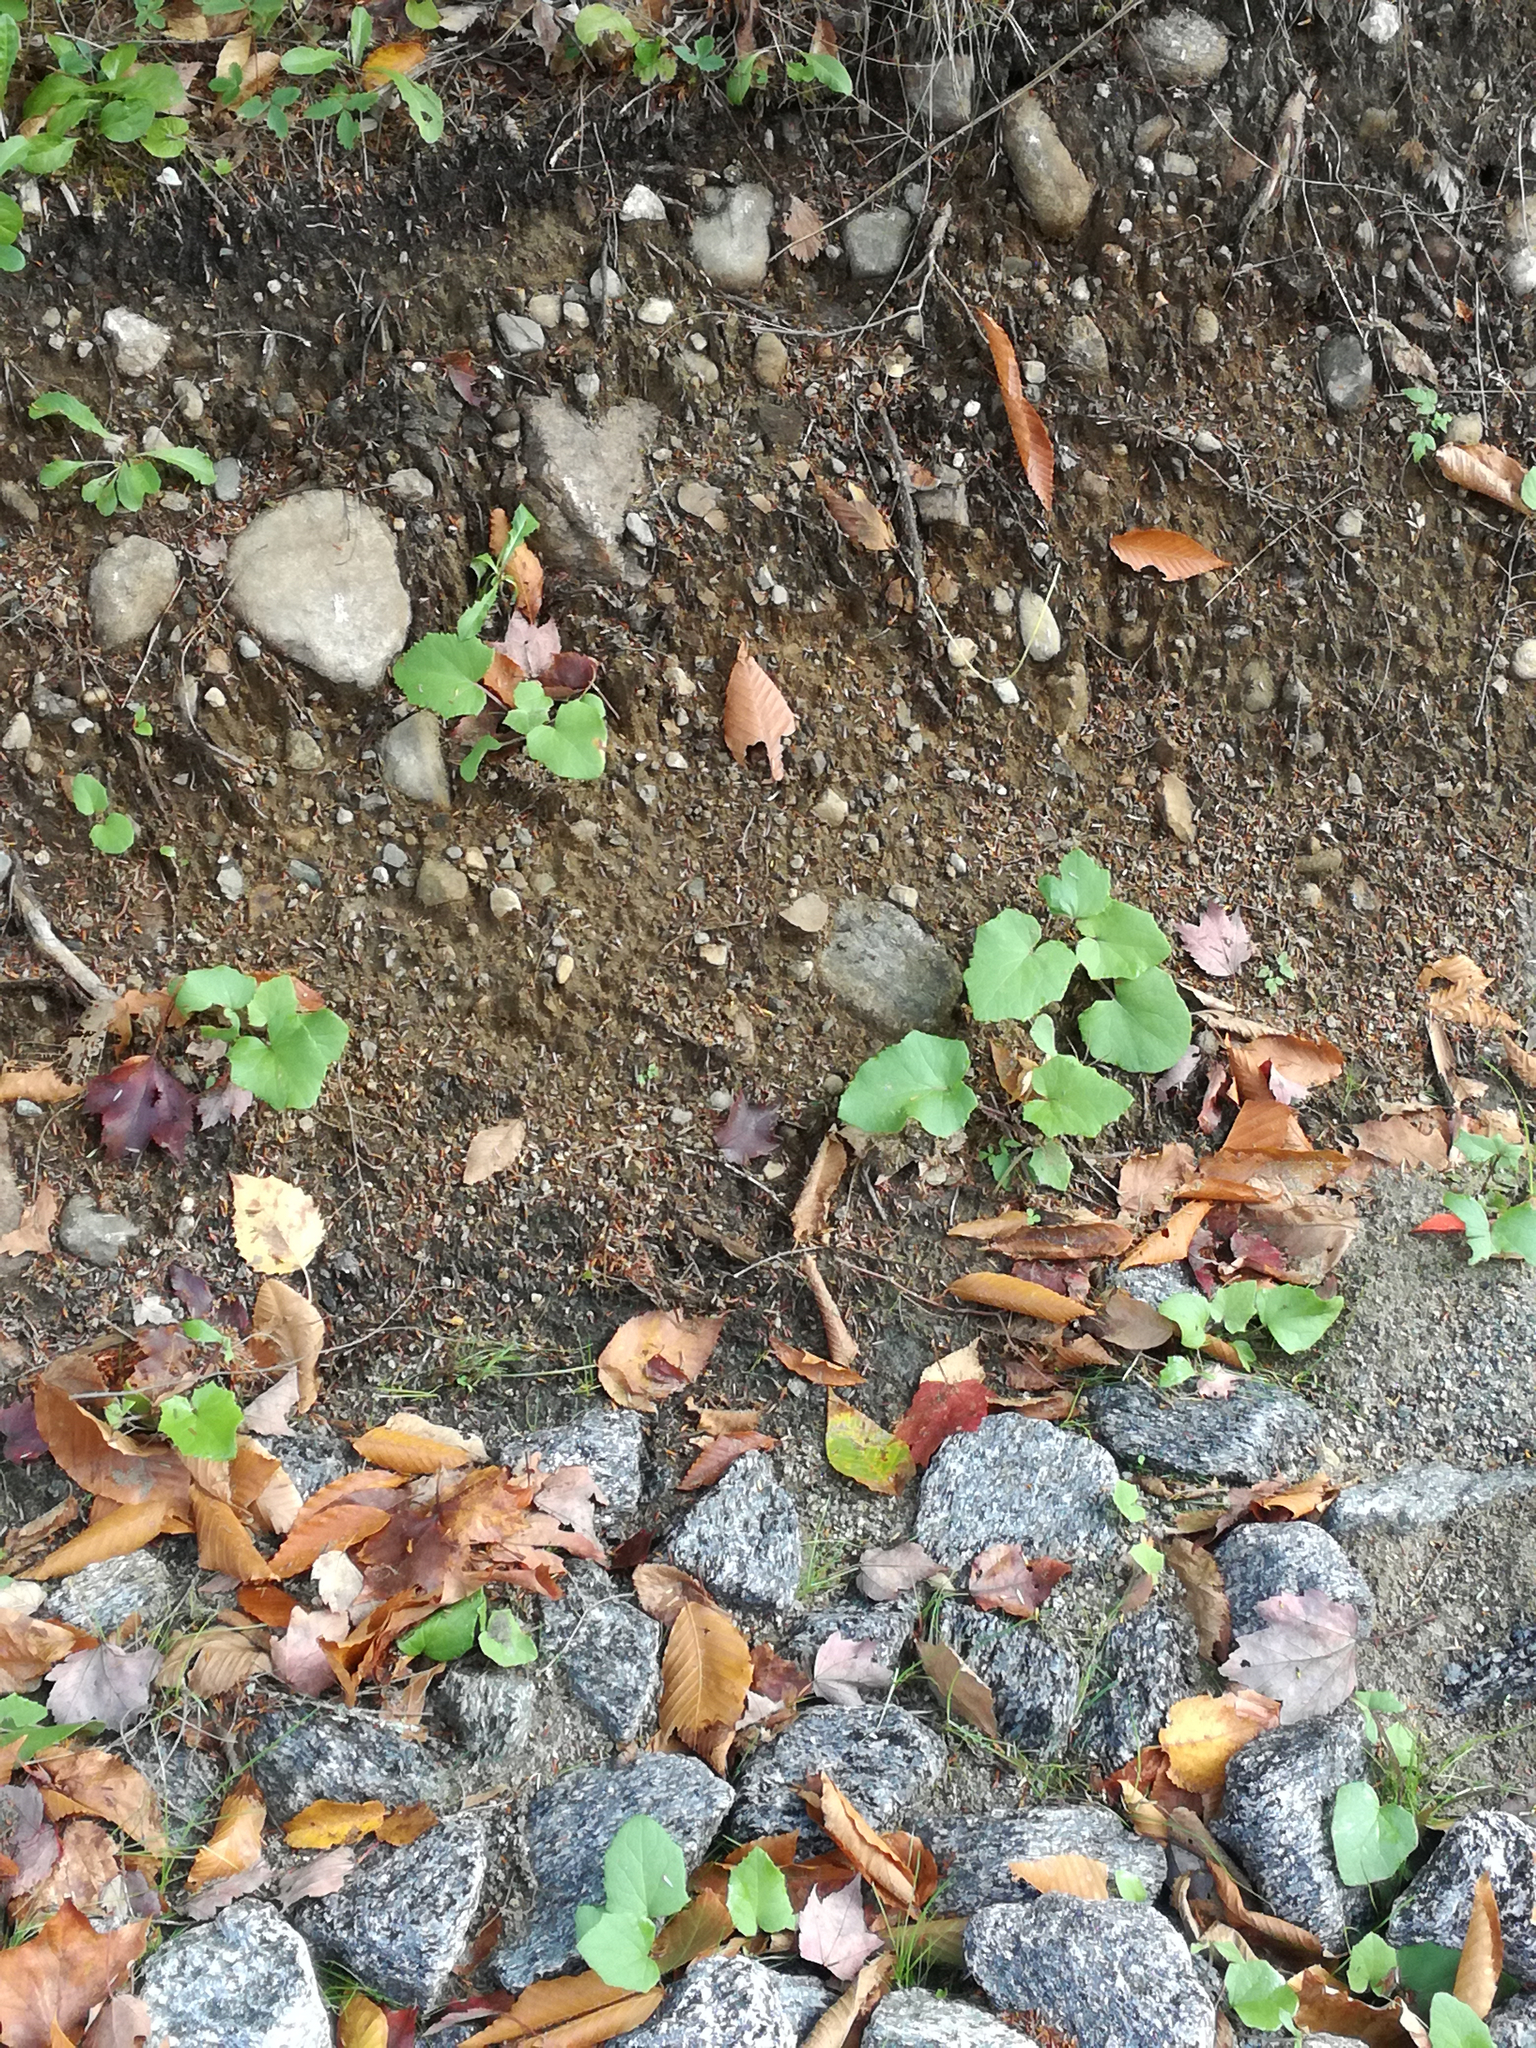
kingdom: Plantae
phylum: Tracheophyta
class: Magnoliopsida
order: Asterales
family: Asteraceae
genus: Tussilago
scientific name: Tussilago farfara
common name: Coltsfoot
